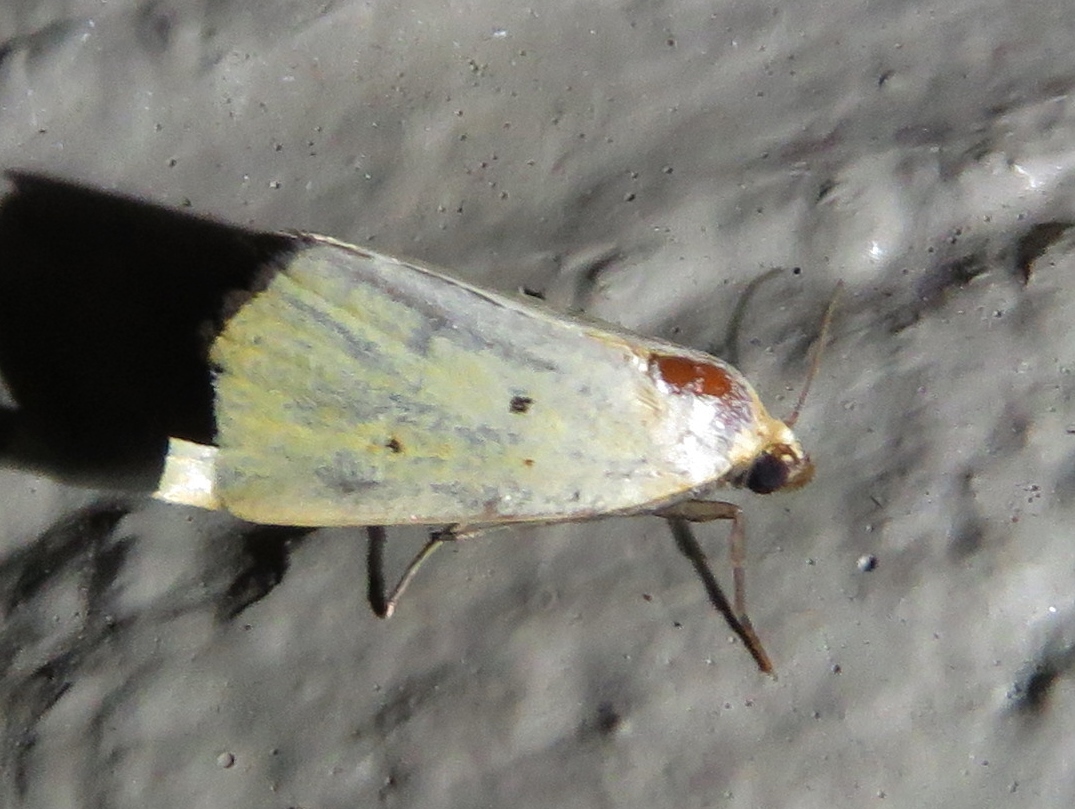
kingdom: Animalia
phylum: Arthropoda
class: Insecta
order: Lepidoptera
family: Noctuidae
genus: Marimatha
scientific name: Marimatha nigrofimbria
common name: Black-bordered lemon moth
